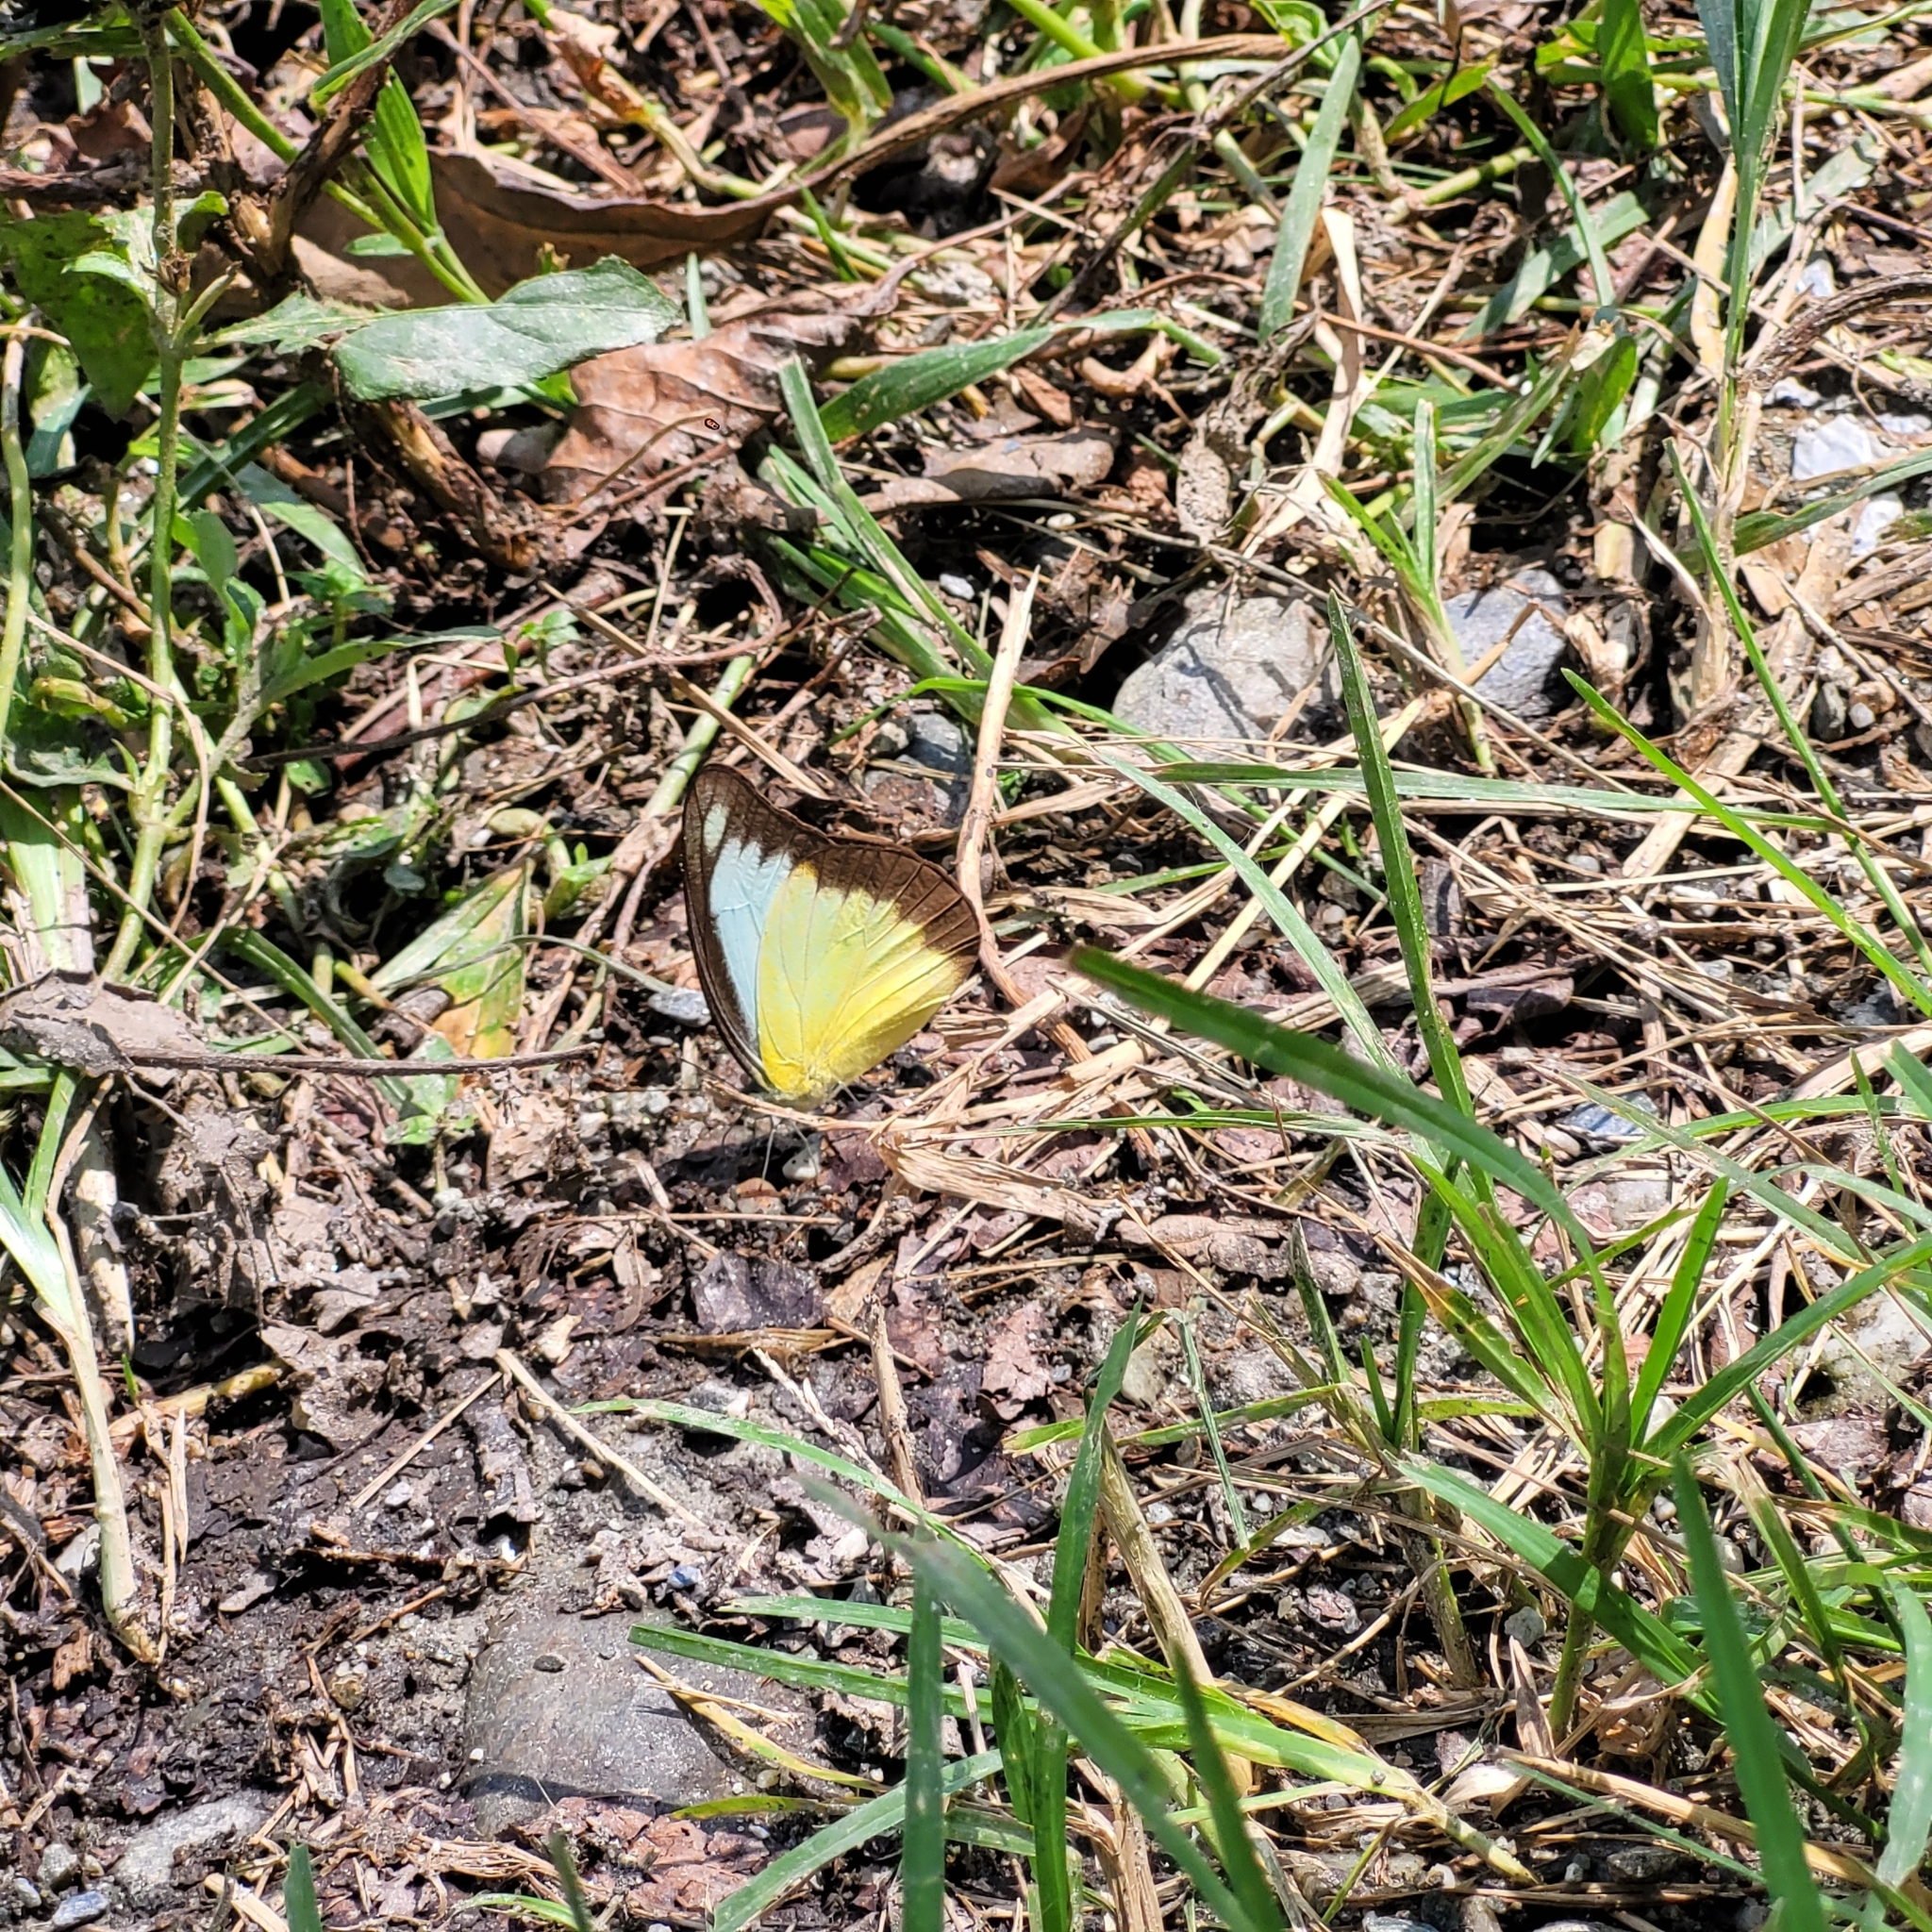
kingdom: Animalia
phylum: Arthropoda
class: Insecta
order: Lepidoptera
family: Pieridae
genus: Appias
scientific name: Appias lyncida
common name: Chocolate albatross
